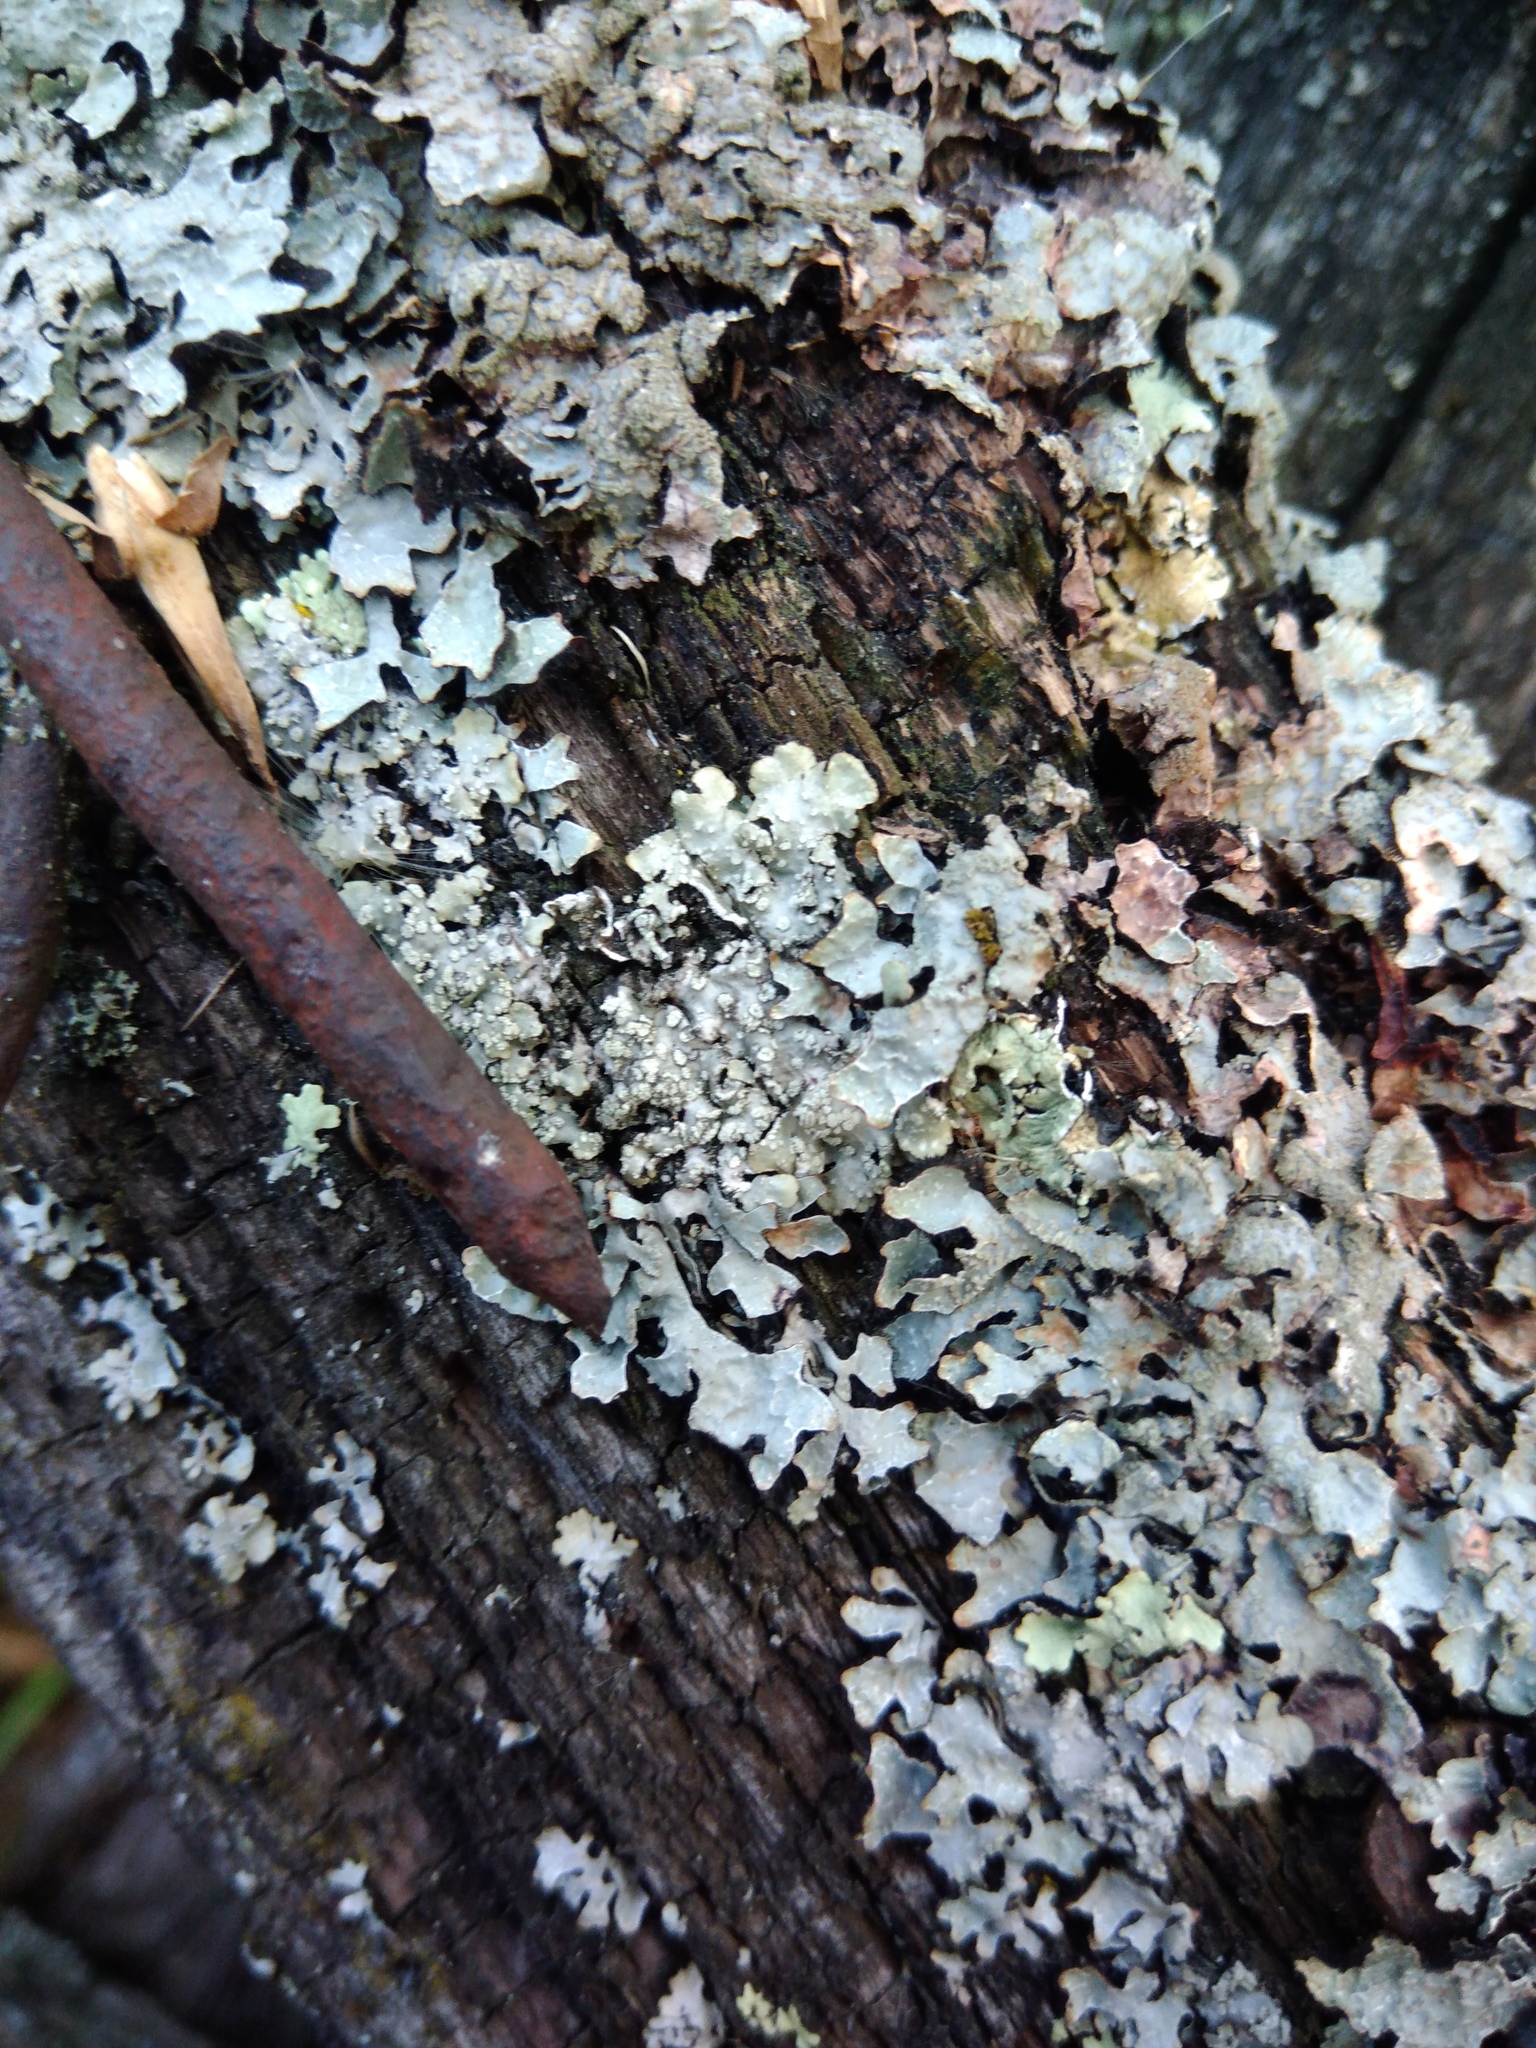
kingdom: Fungi
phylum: Ascomycota
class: Lecanoromycetes
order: Lecanorales
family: Parmeliaceae
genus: Punctelia
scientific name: Punctelia subrudecta
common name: Powdered speckled shield lichen
